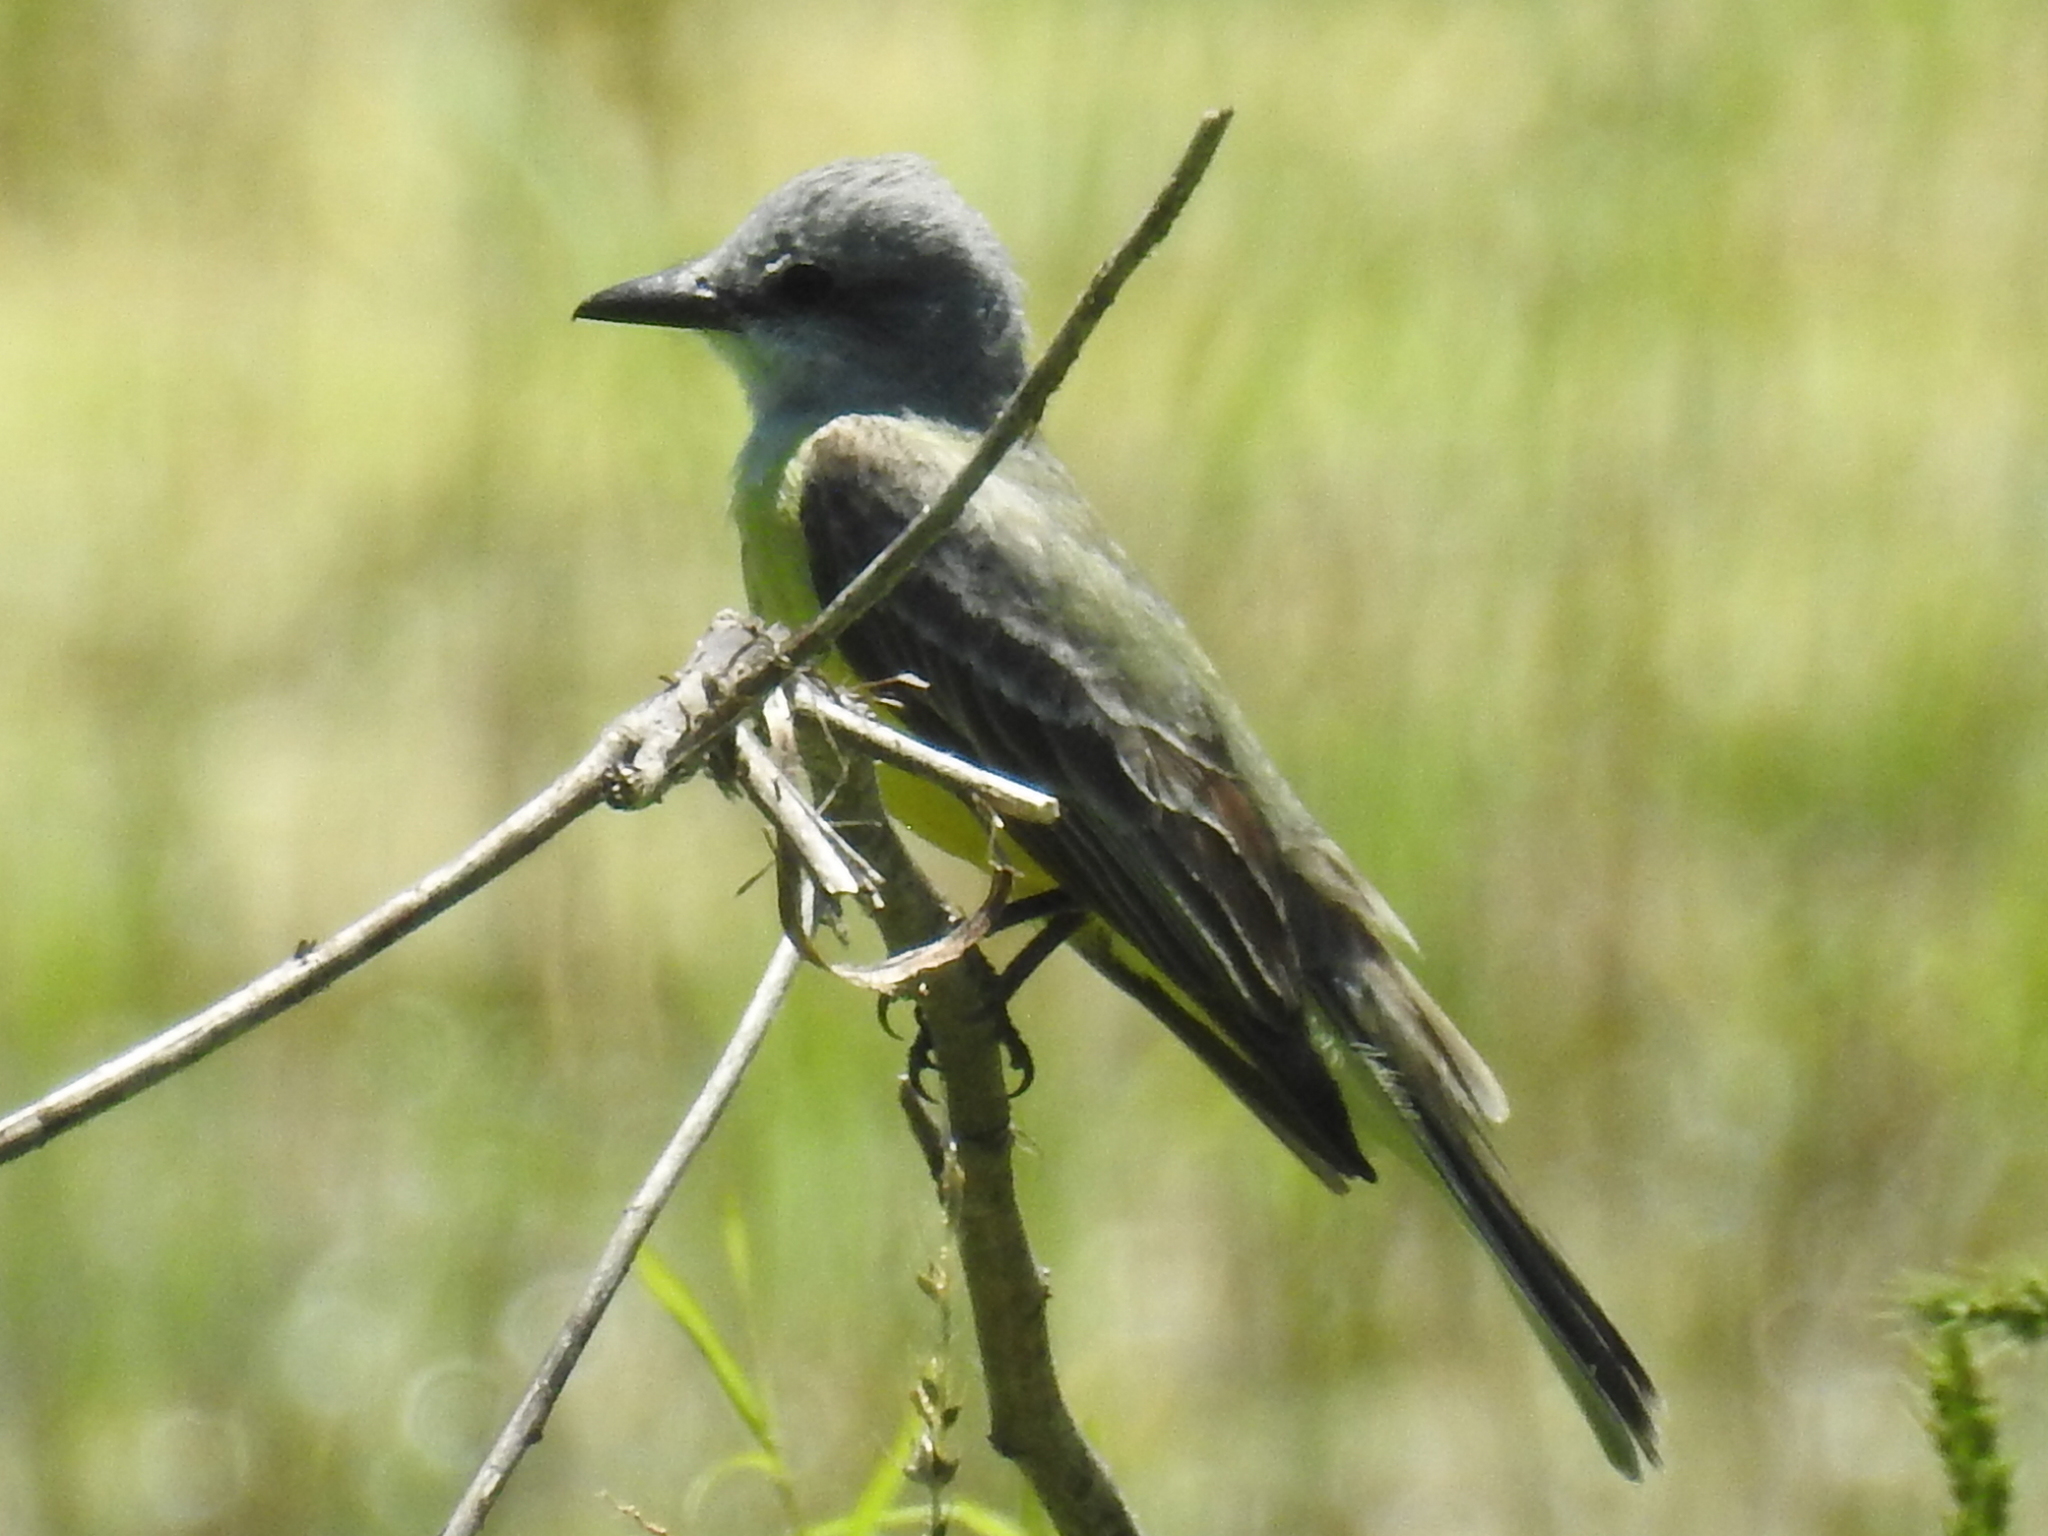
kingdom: Animalia
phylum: Chordata
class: Aves
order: Passeriformes
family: Tyrannidae
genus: Tyrannus
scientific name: Tyrannus
